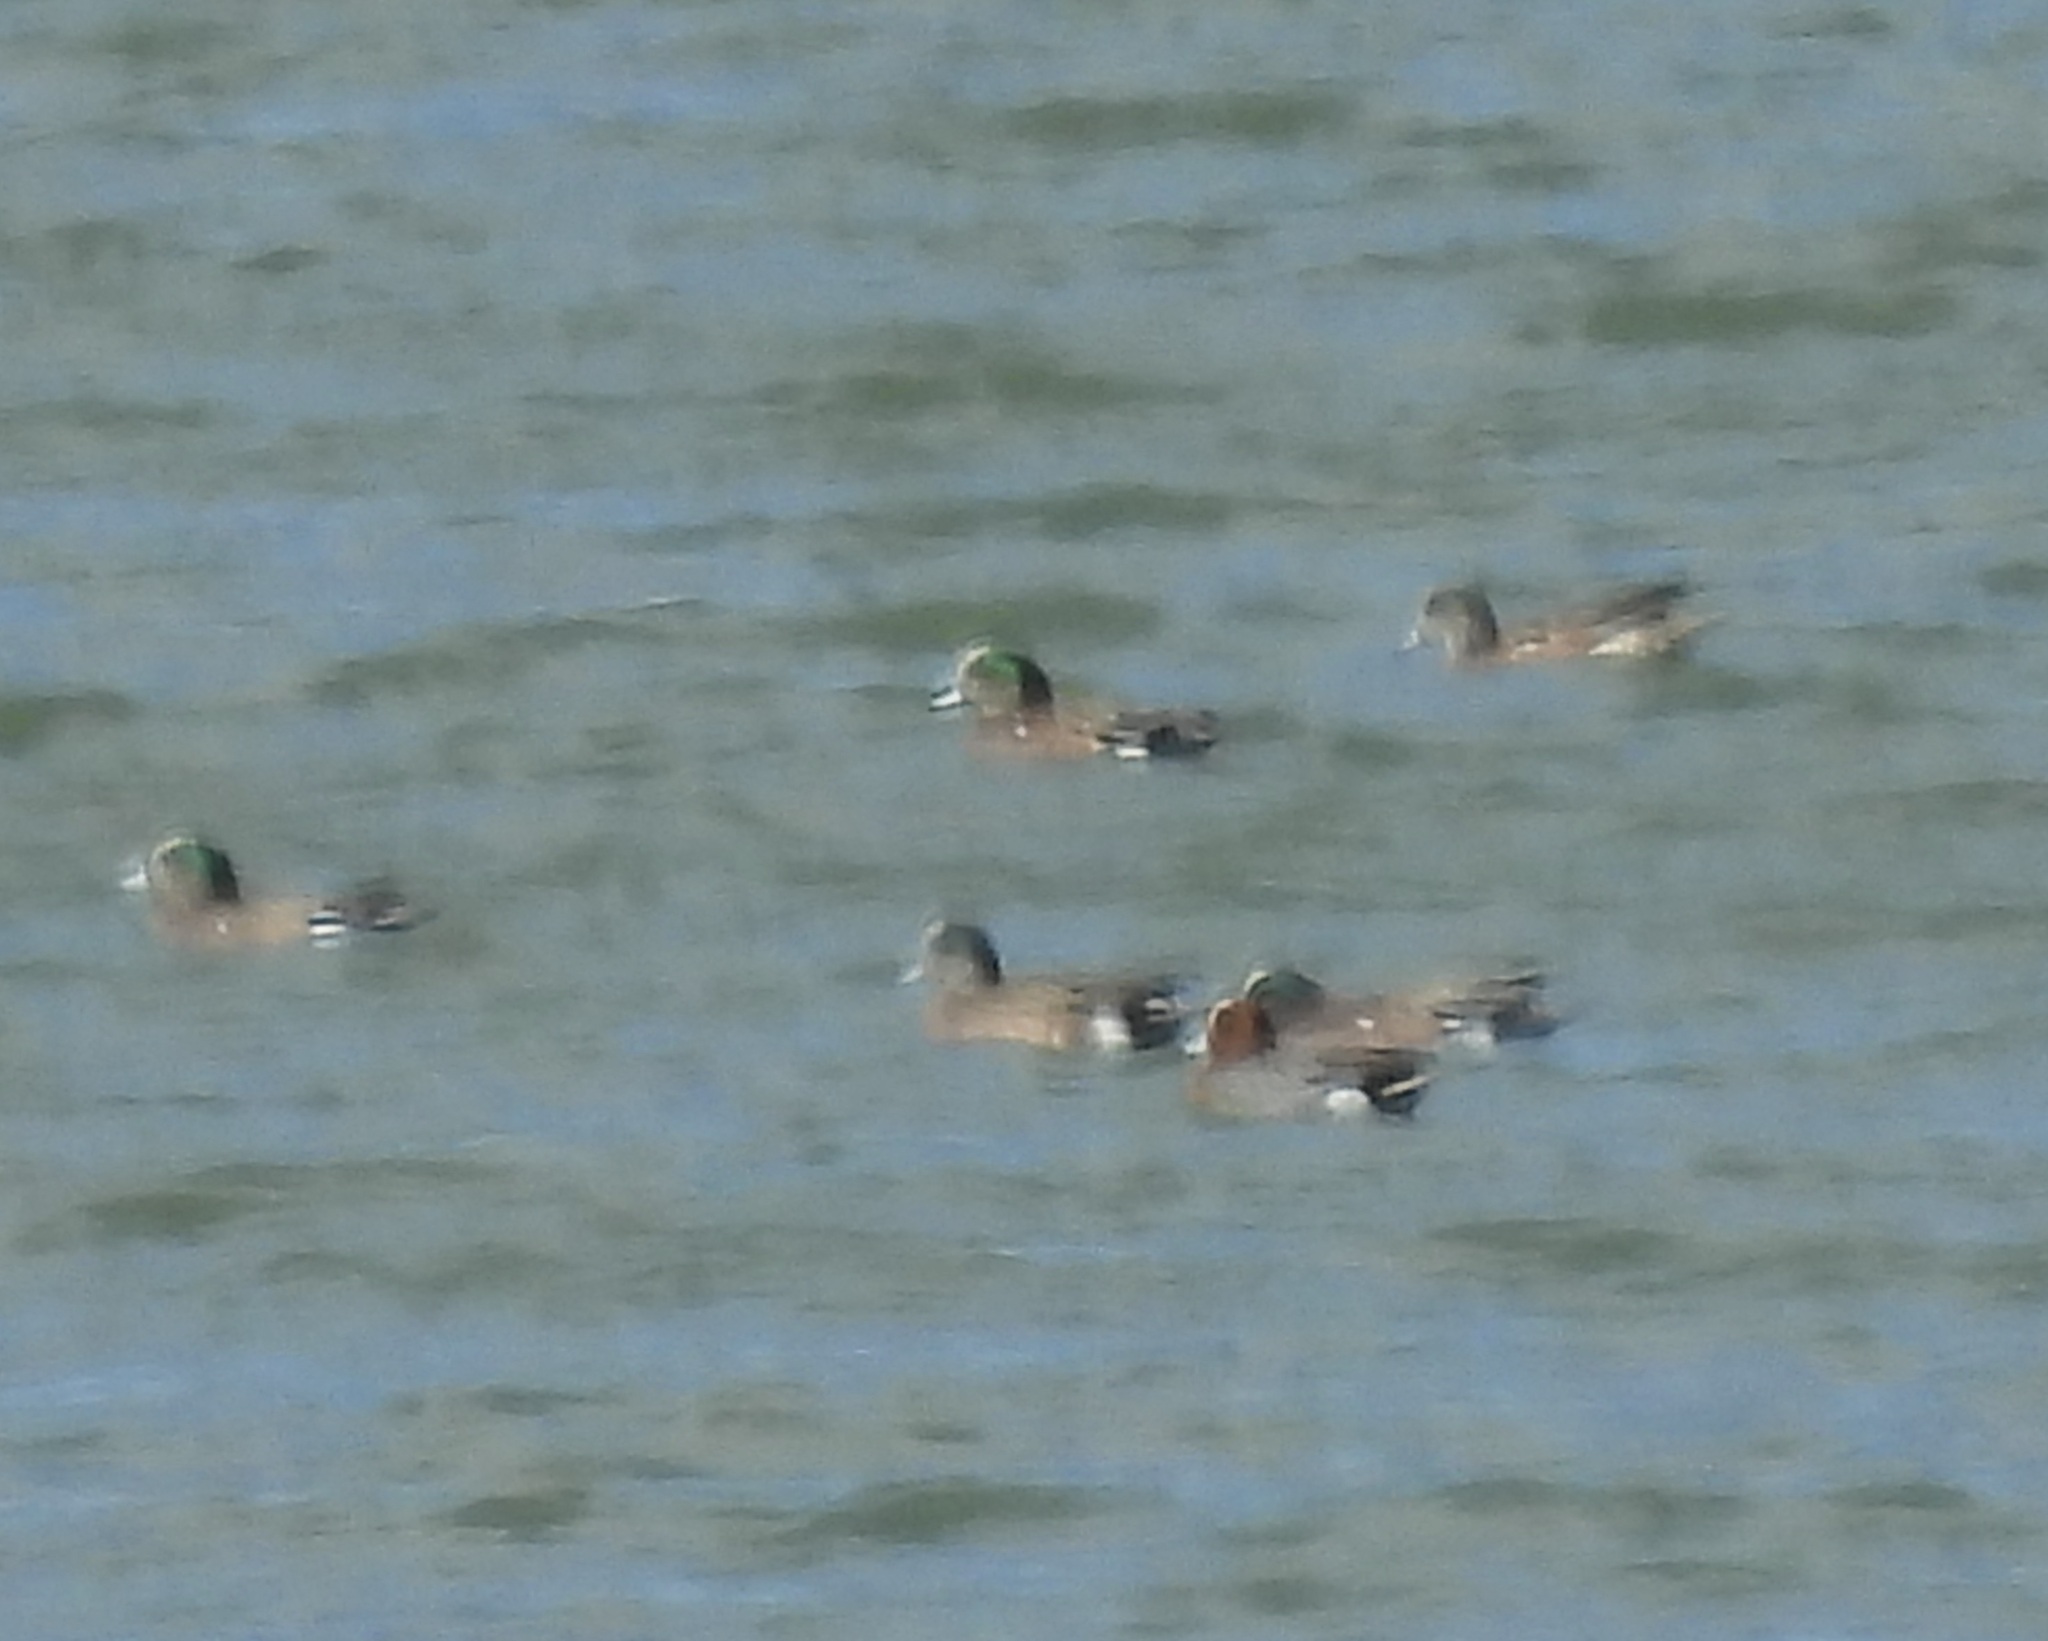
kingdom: Animalia
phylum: Chordata
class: Aves
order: Anseriformes
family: Anatidae
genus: Mareca
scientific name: Mareca penelope
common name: Eurasian wigeon
